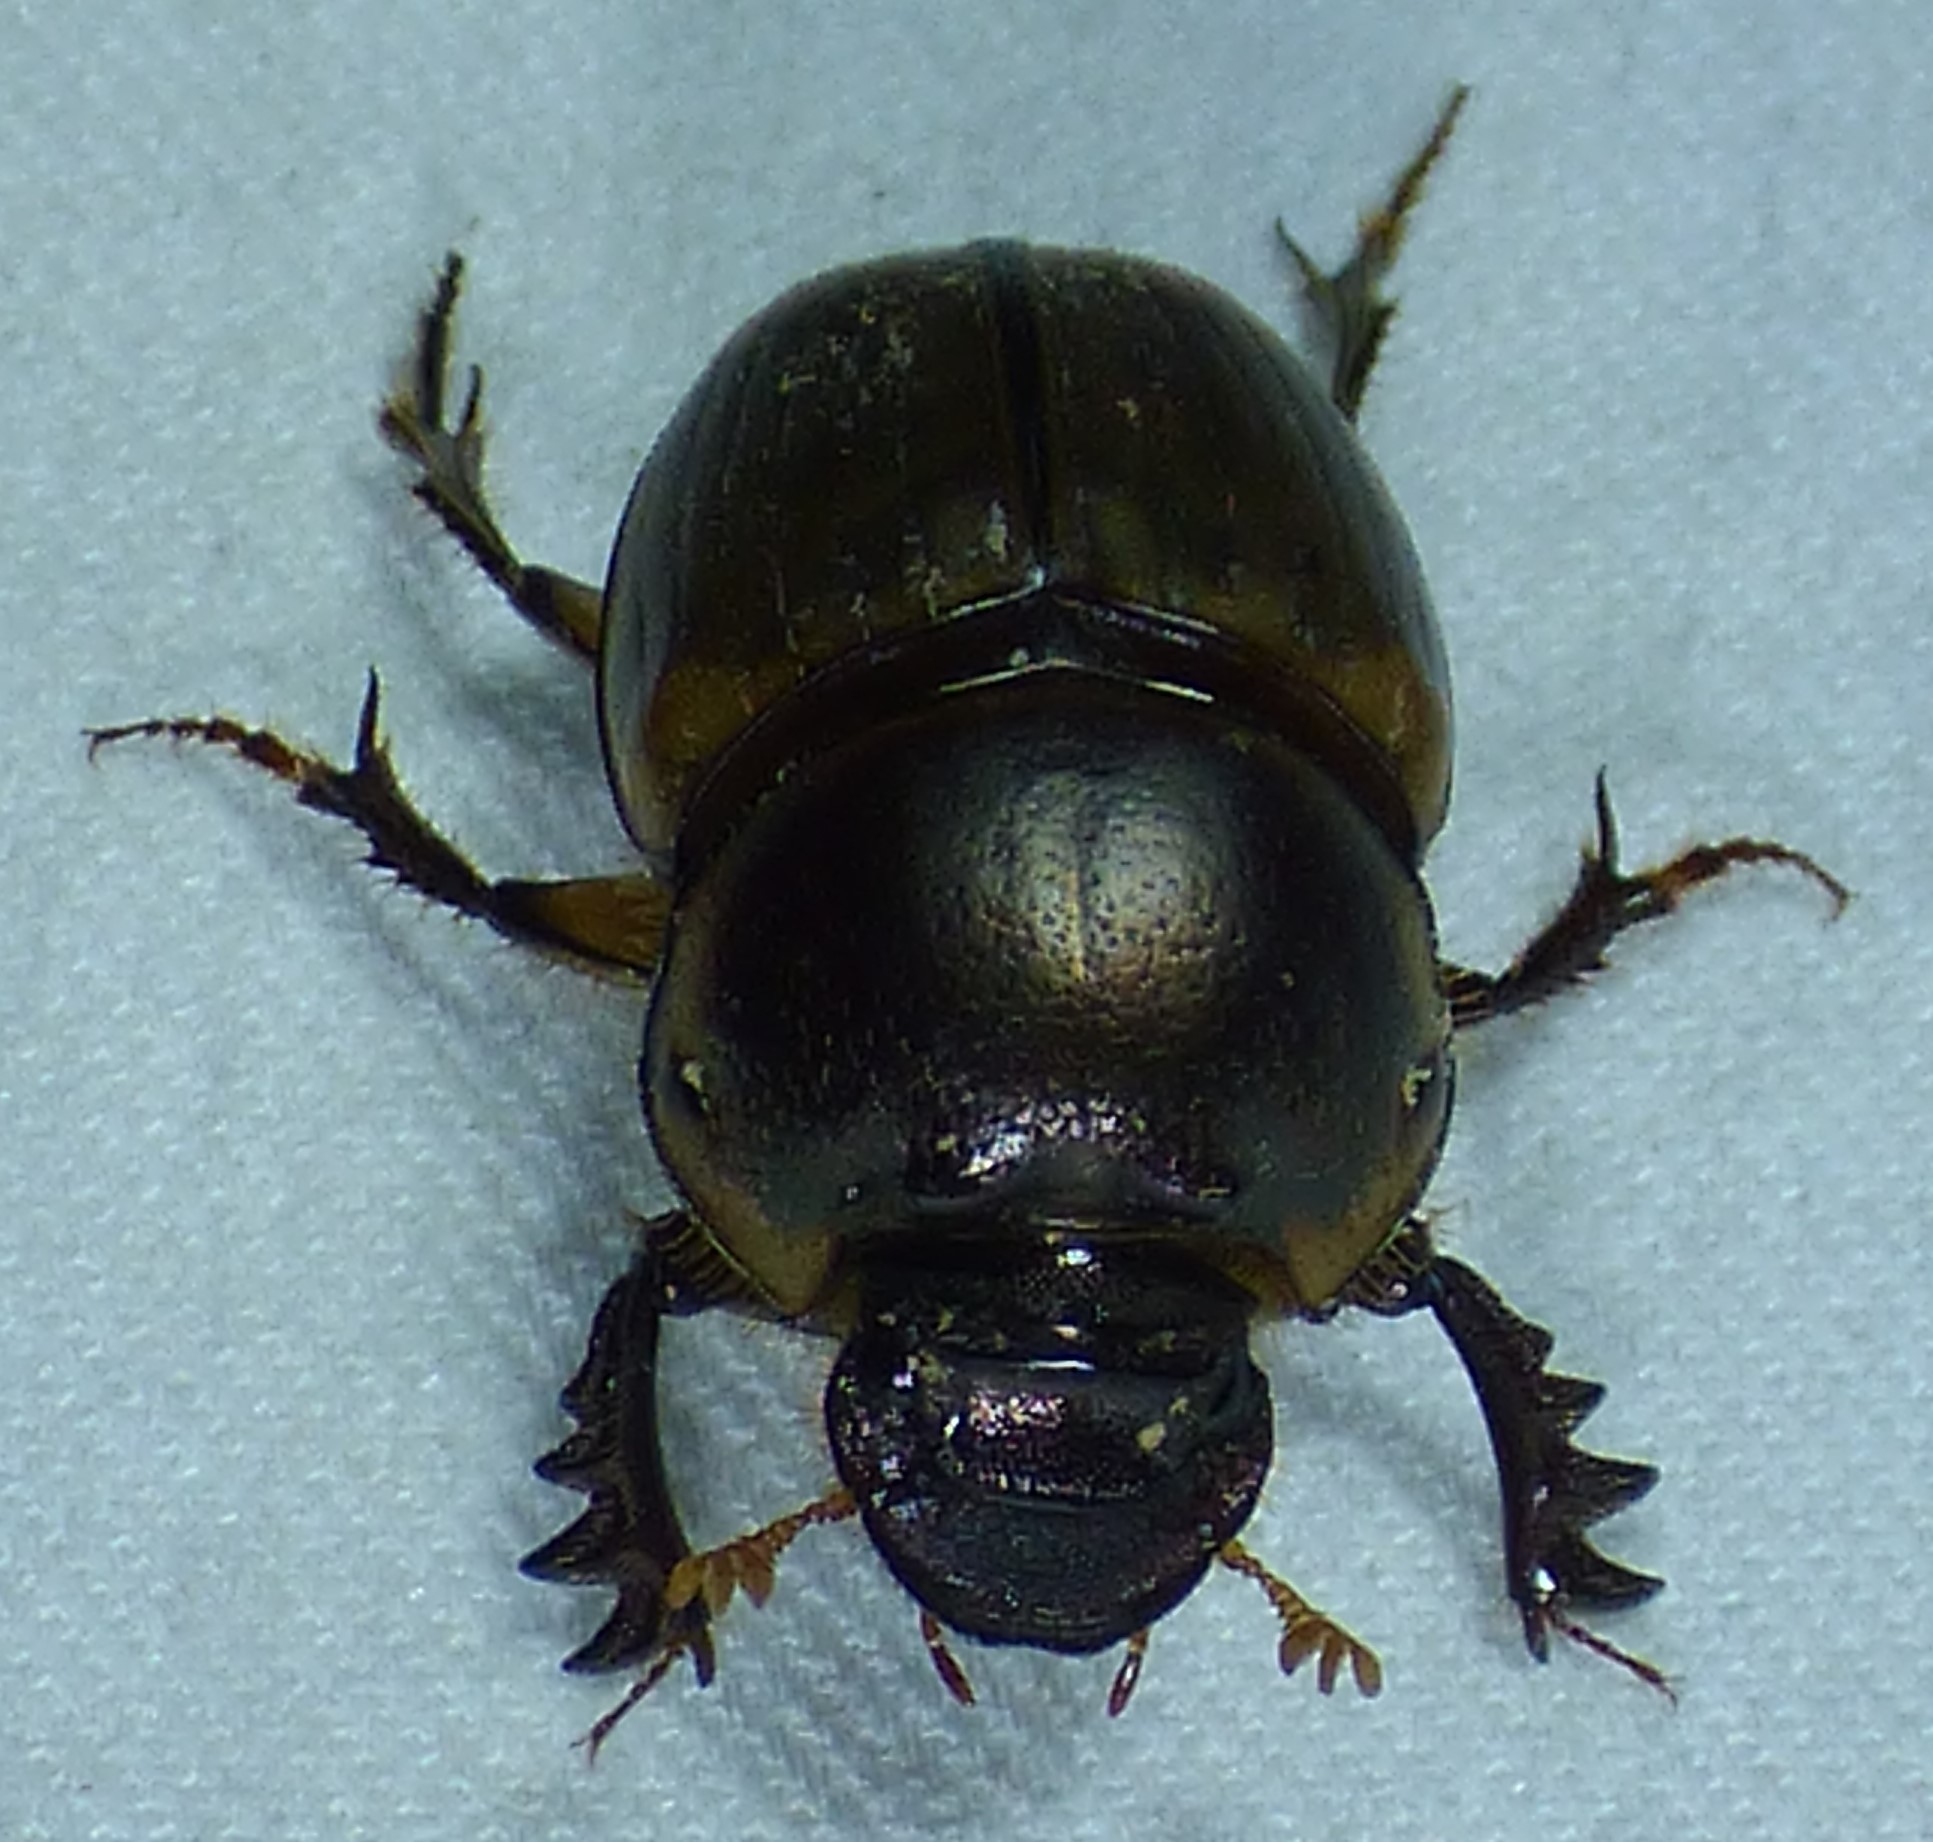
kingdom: Animalia
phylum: Arthropoda
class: Insecta
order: Coleoptera
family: Scarabaeidae
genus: Digitonthophagus
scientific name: Digitonthophagus gazella
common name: Brown dung beetle
